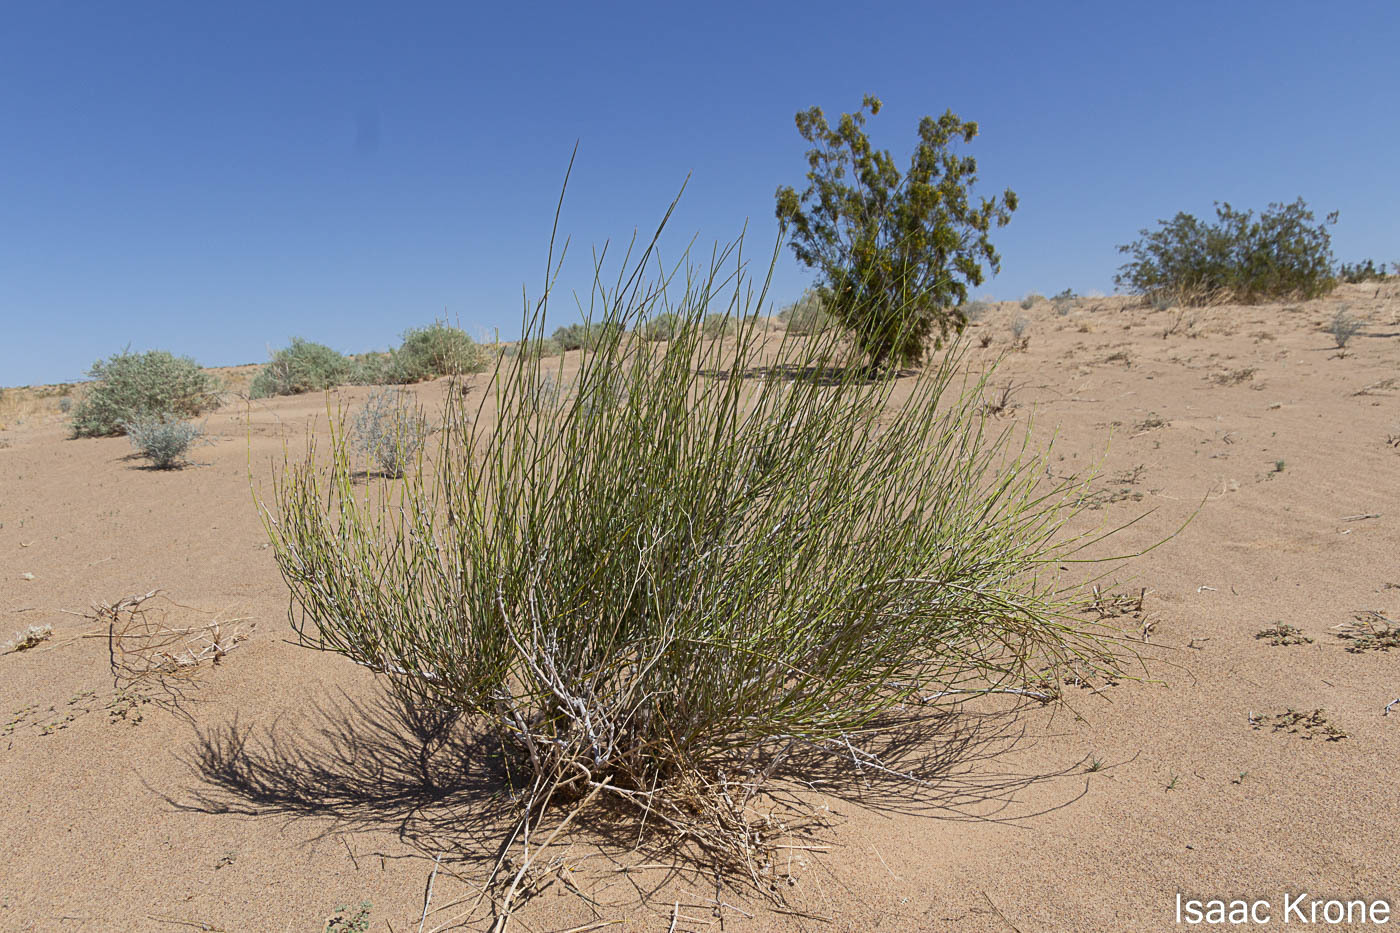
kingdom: Plantae
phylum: Tracheophyta
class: Gnetopsida
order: Ephedrales
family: Ephedraceae
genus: Ephedra
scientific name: Ephedra trifurca
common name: Mexican-tea
